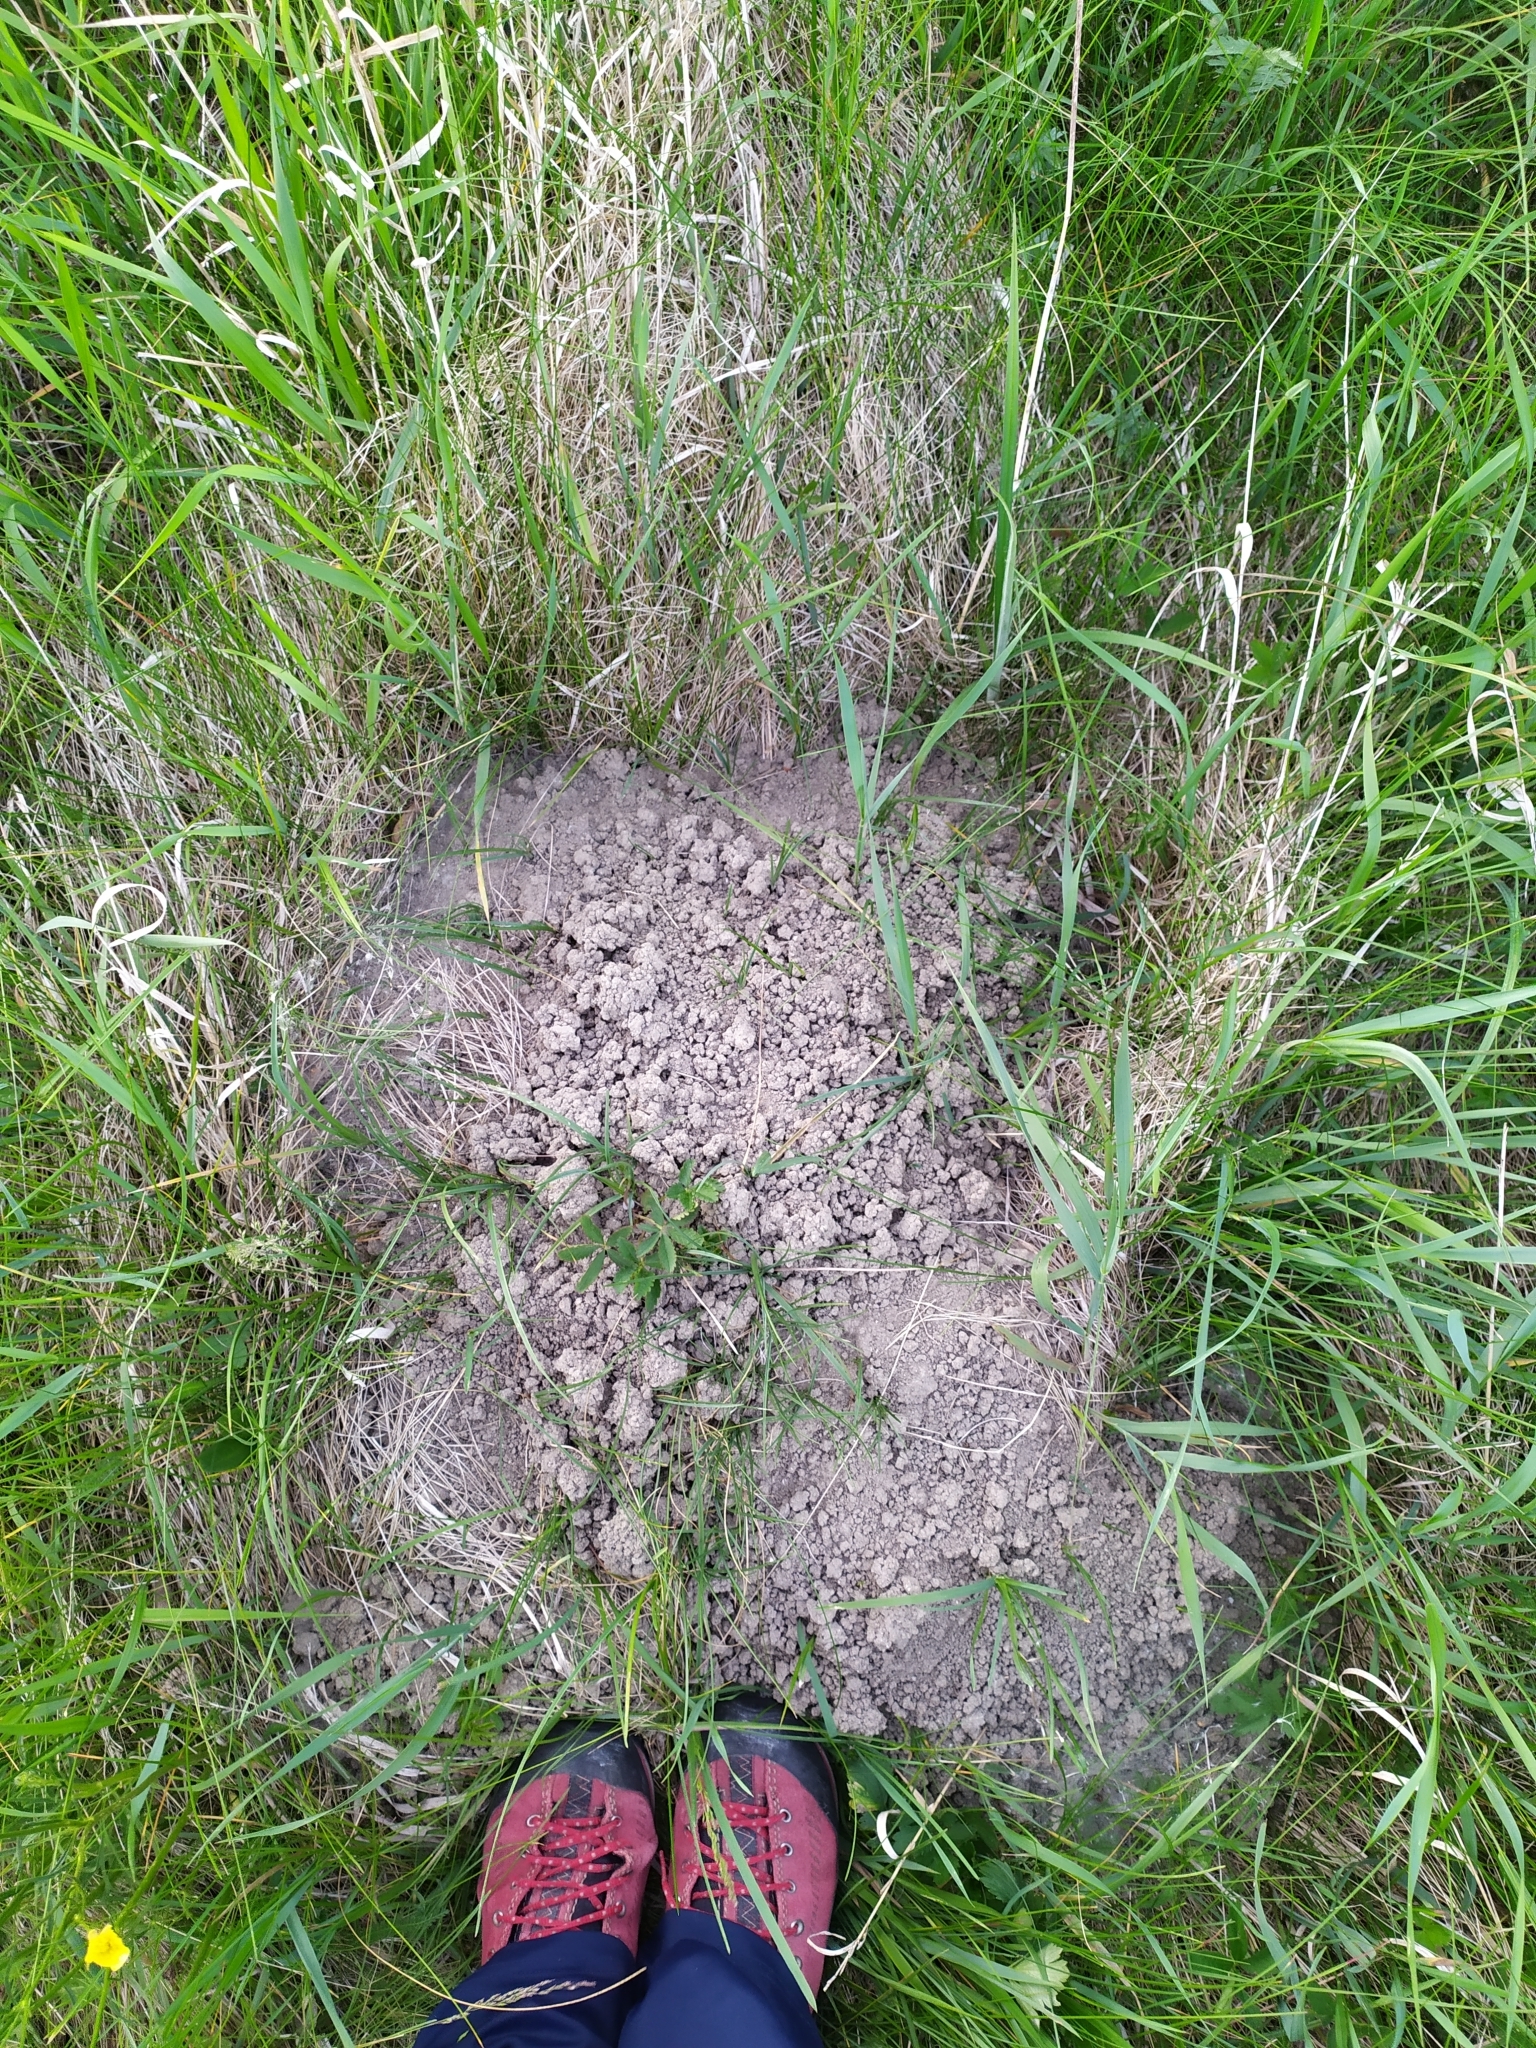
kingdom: Animalia
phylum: Chordata
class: Mammalia
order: Soricomorpha
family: Talpidae
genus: Talpa
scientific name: Talpa europaea
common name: European mole
